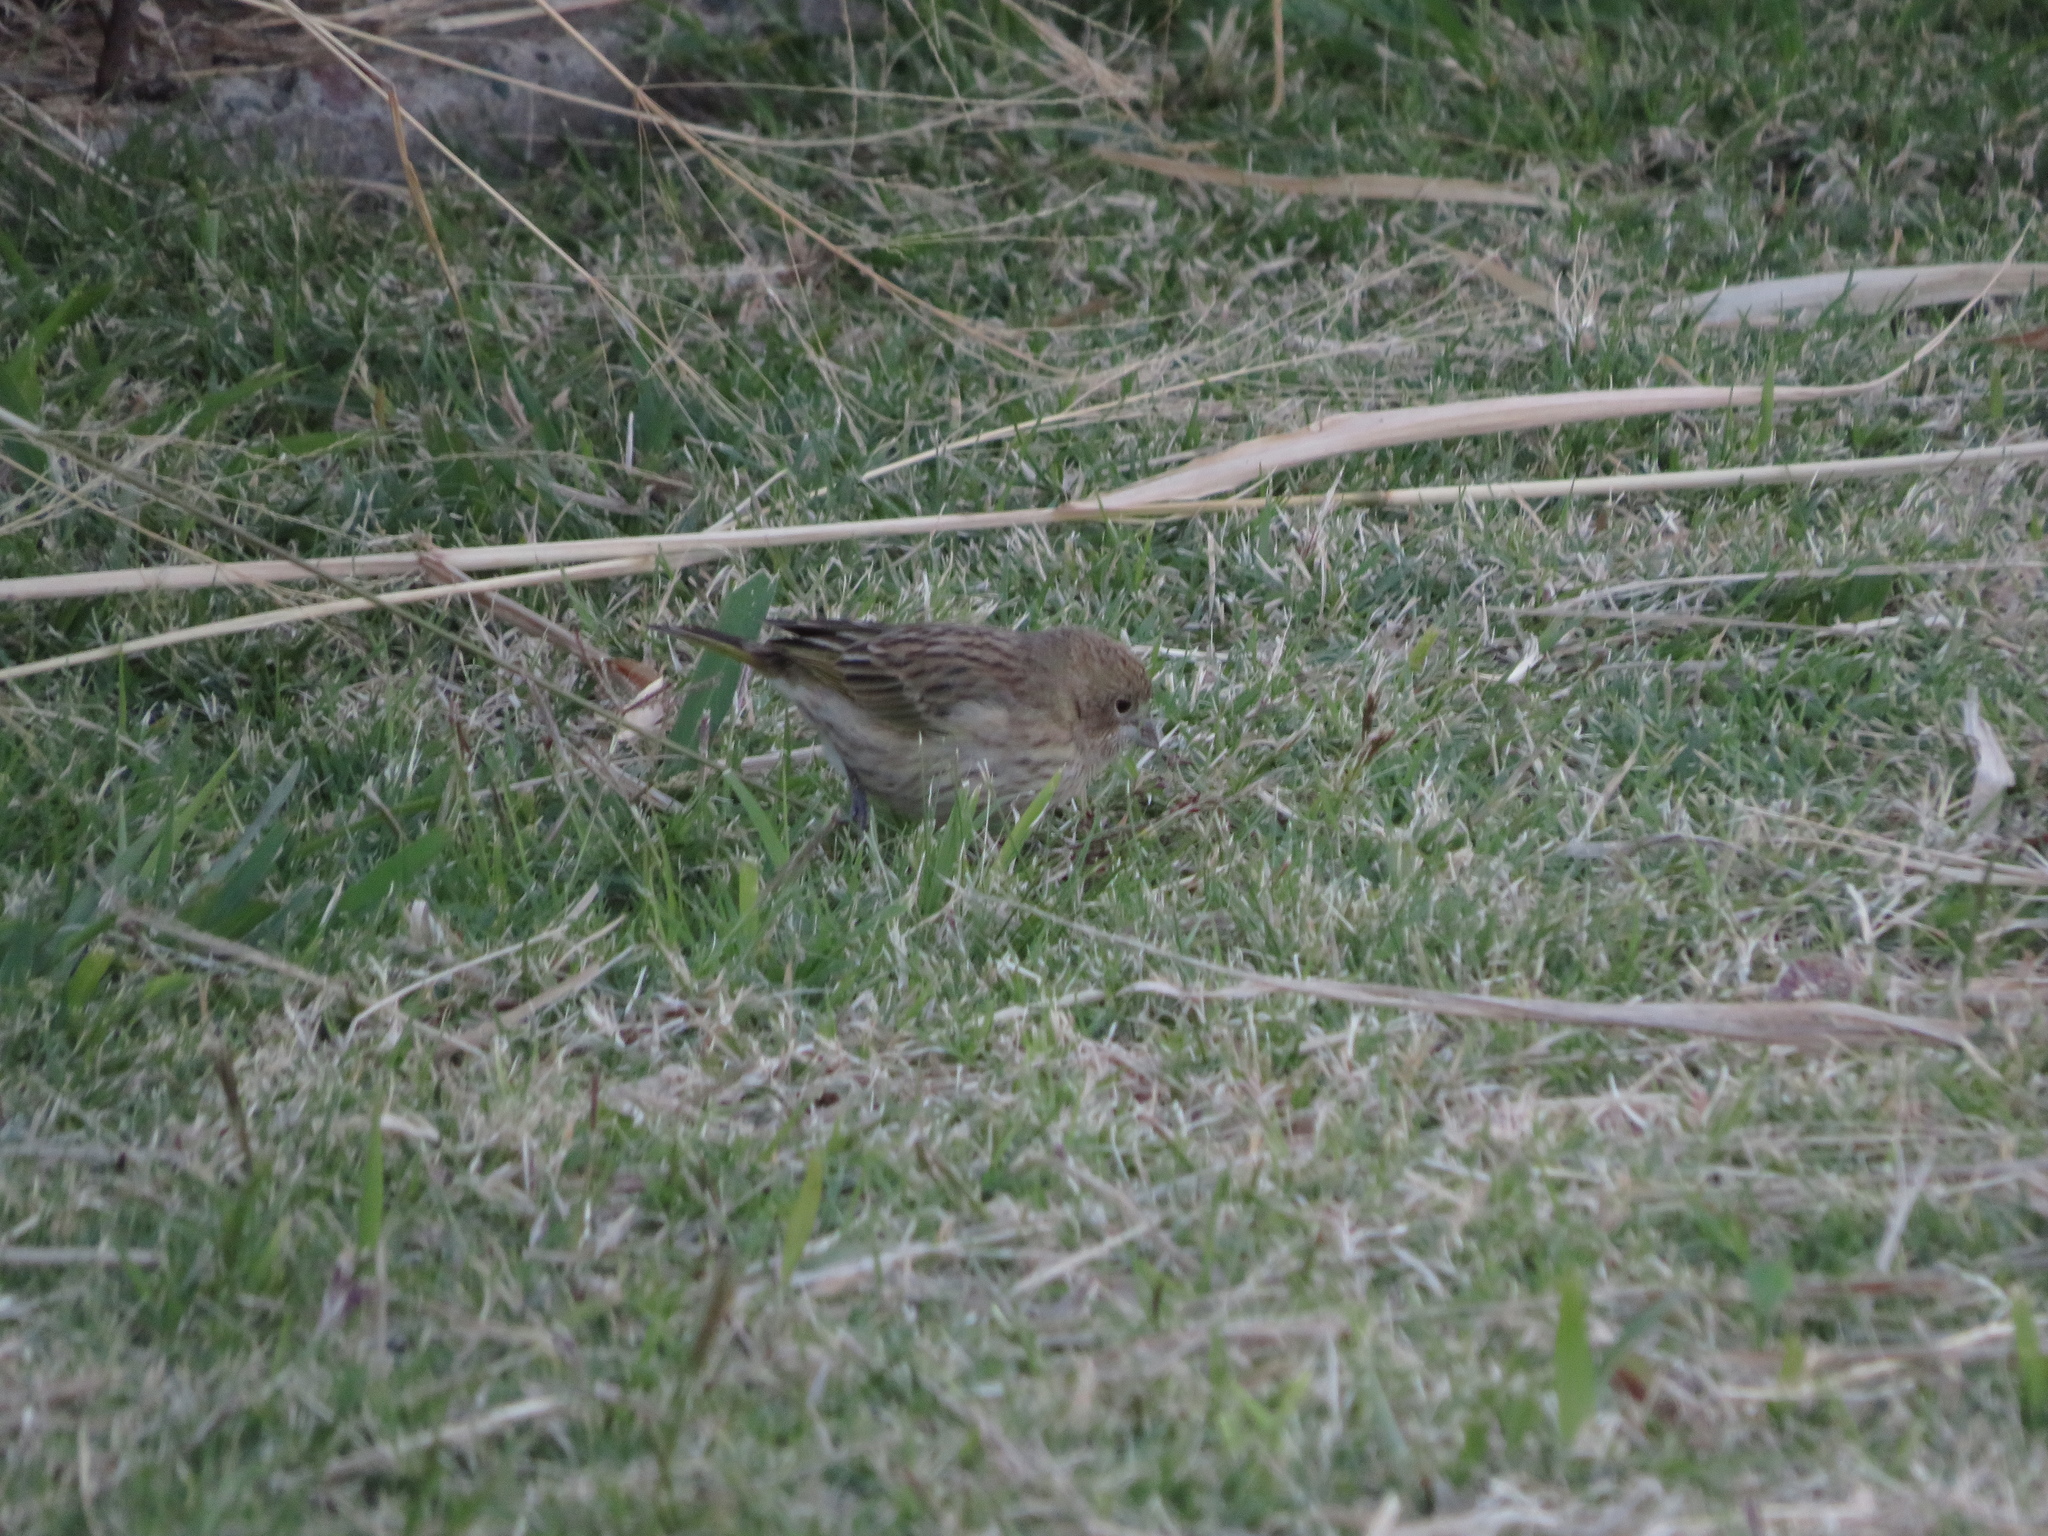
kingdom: Animalia
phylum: Chordata
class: Aves
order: Passeriformes
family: Thraupidae
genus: Sicalis
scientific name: Sicalis flaveola
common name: Saffron finch
